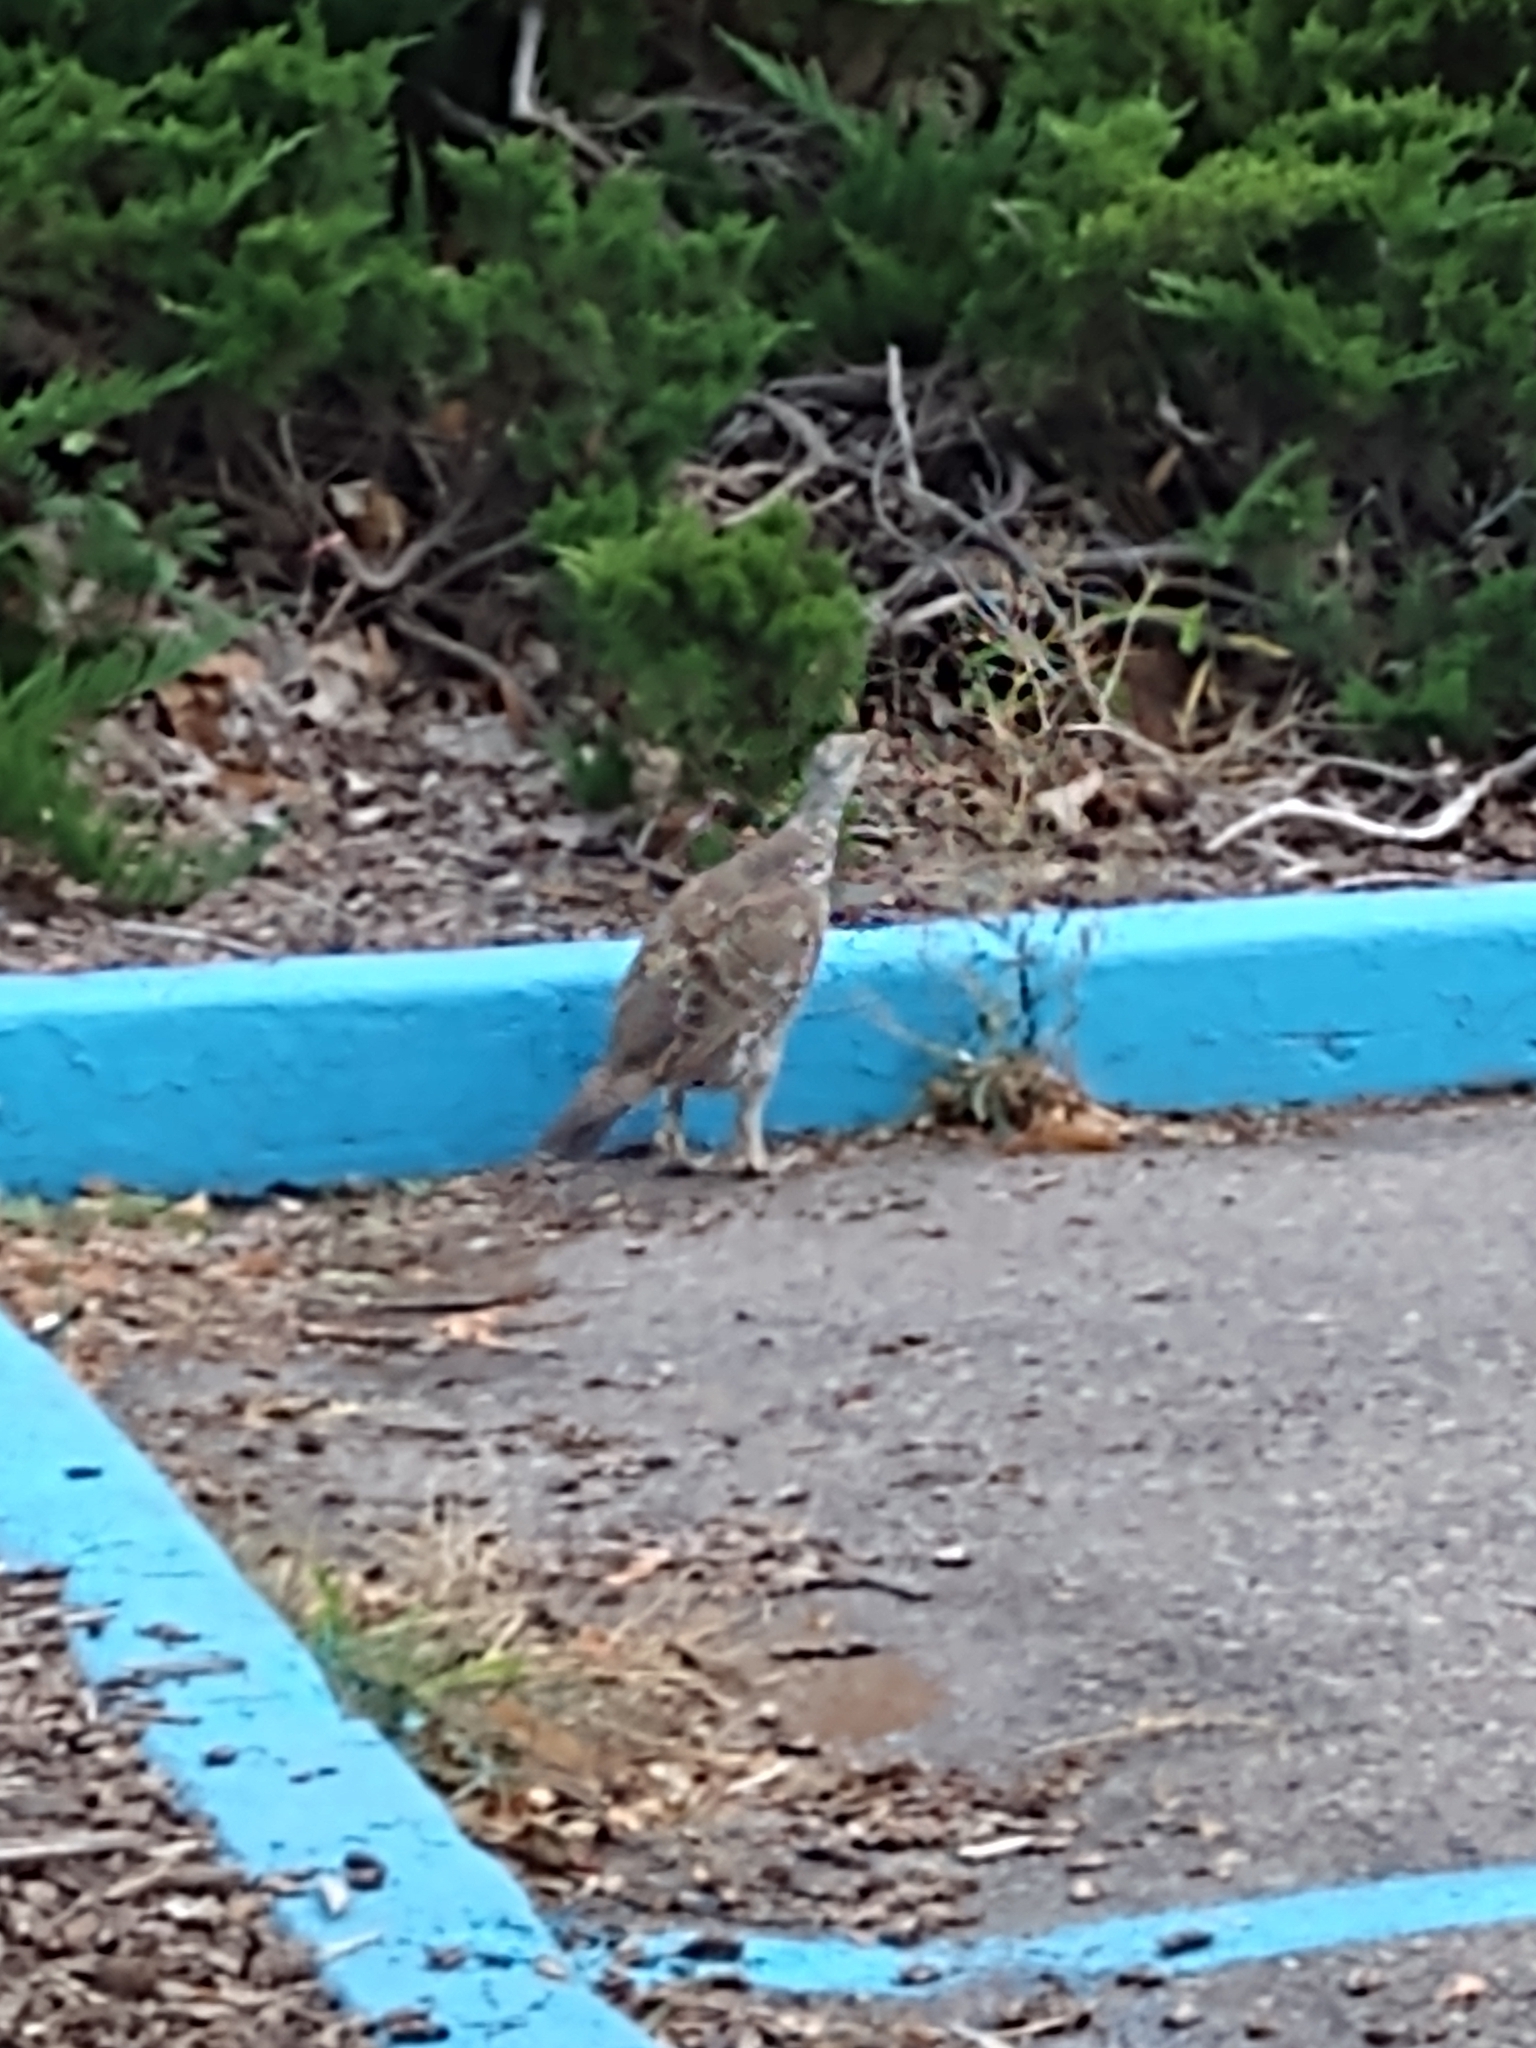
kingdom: Animalia
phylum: Chordata
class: Aves
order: Galliformes
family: Phasianidae
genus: Dendragapus
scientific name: Dendragapus obscurus
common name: Dusky grouse
